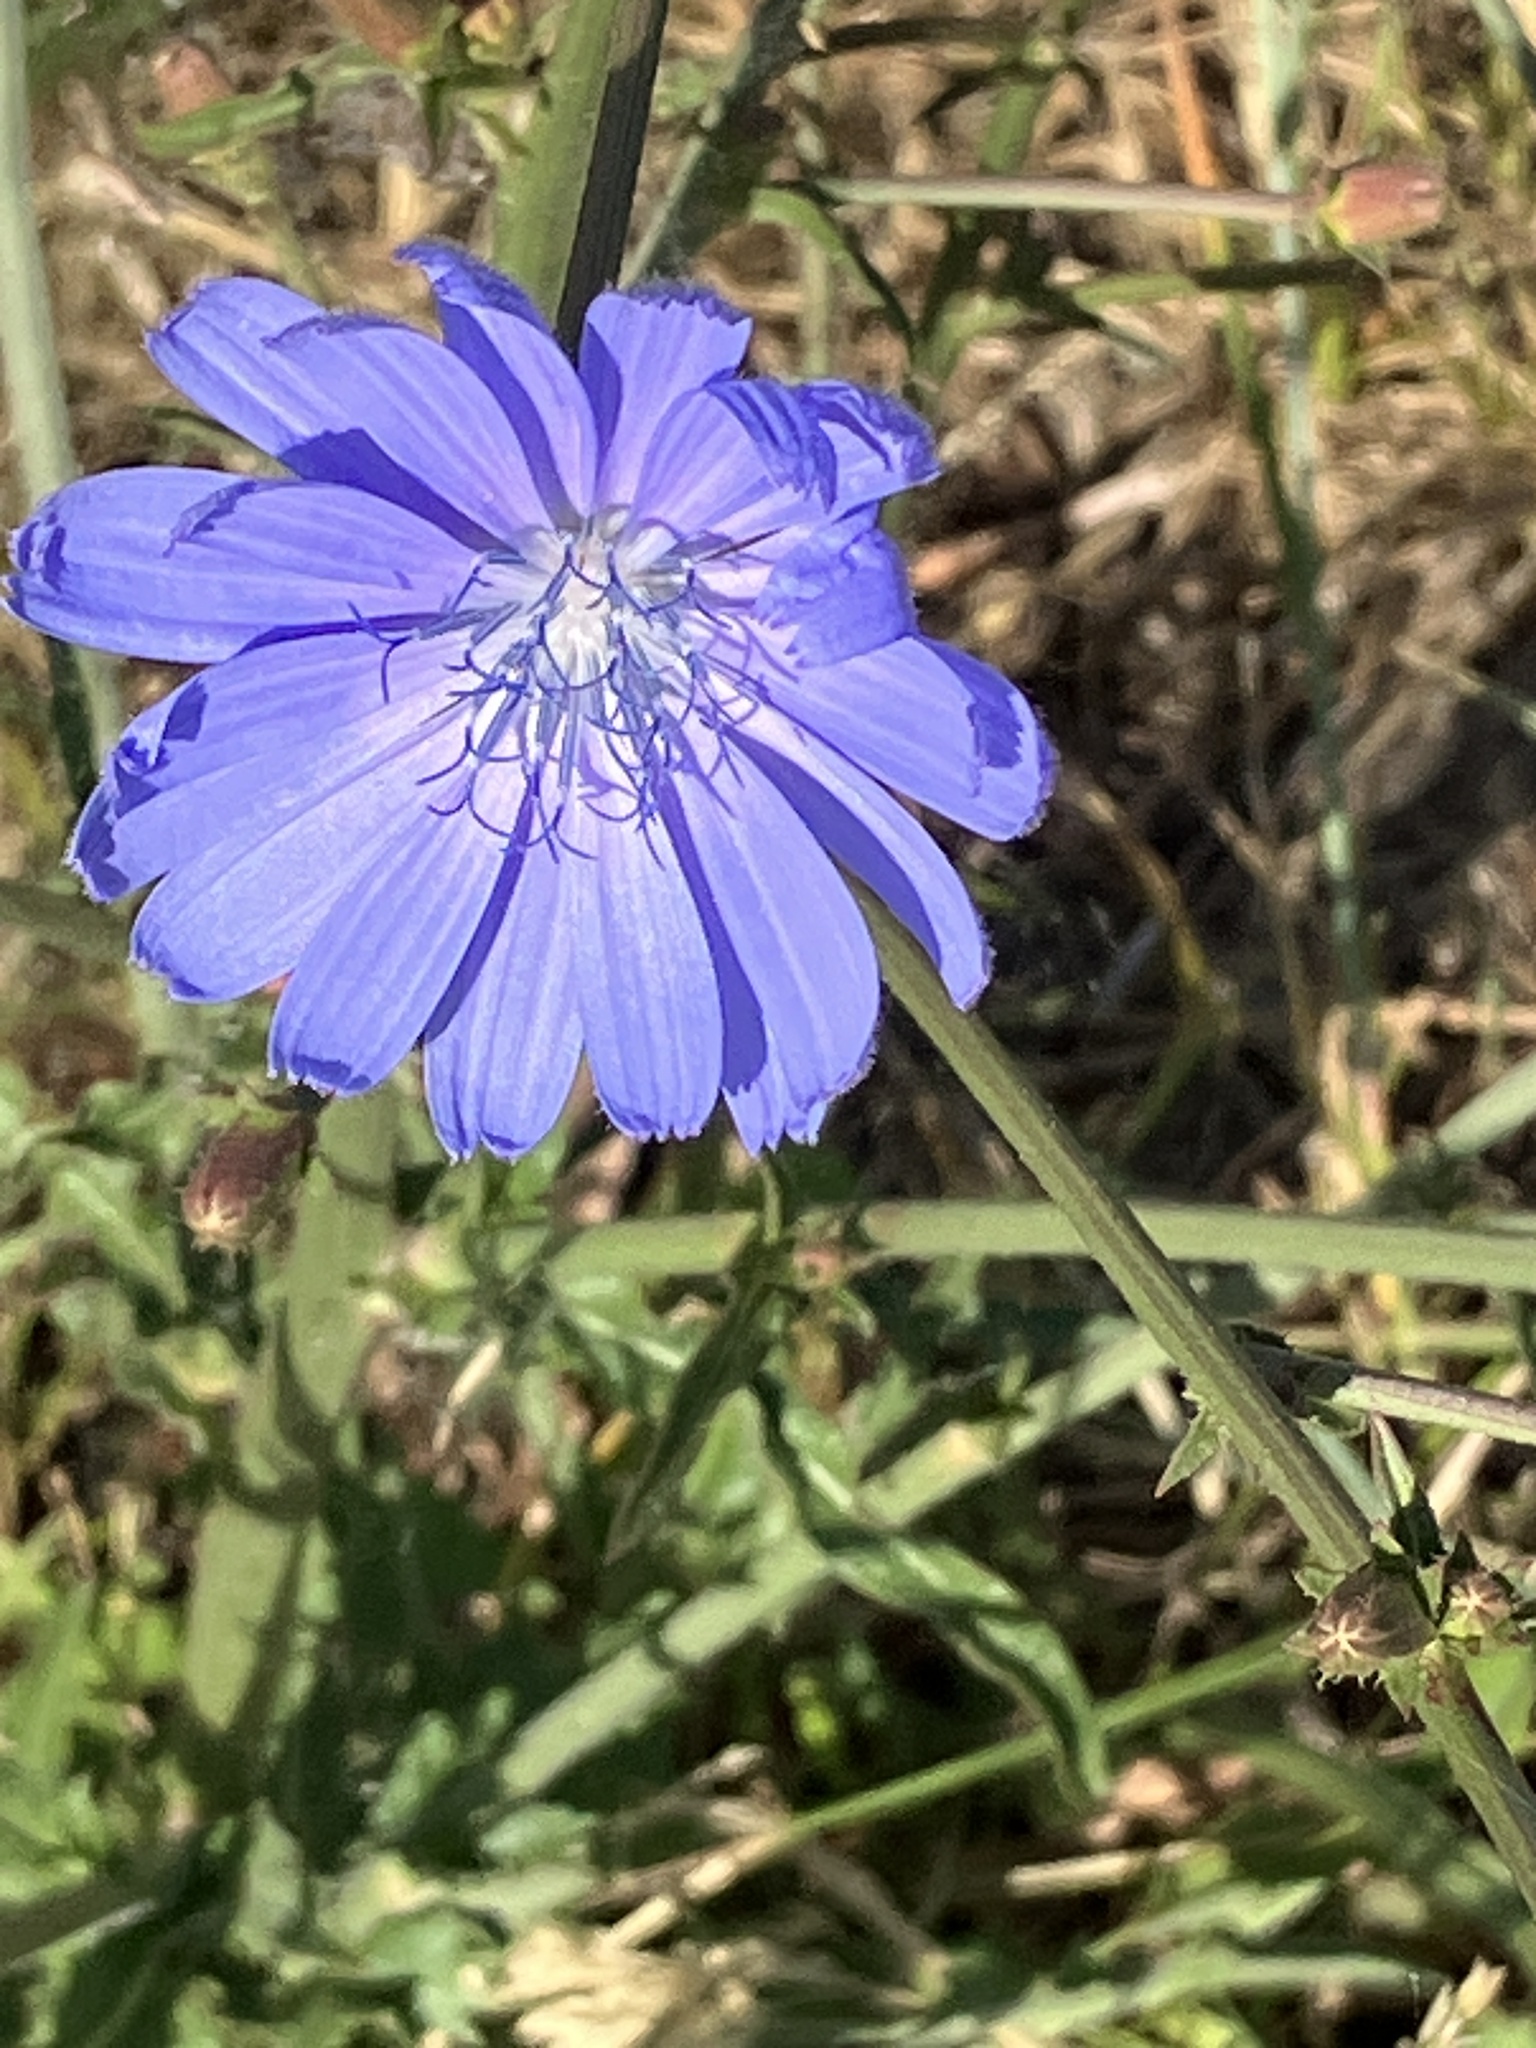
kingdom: Plantae
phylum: Tracheophyta
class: Magnoliopsida
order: Asterales
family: Asteraceae
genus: Cichorium
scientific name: Cichorium intybus
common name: Chicory
